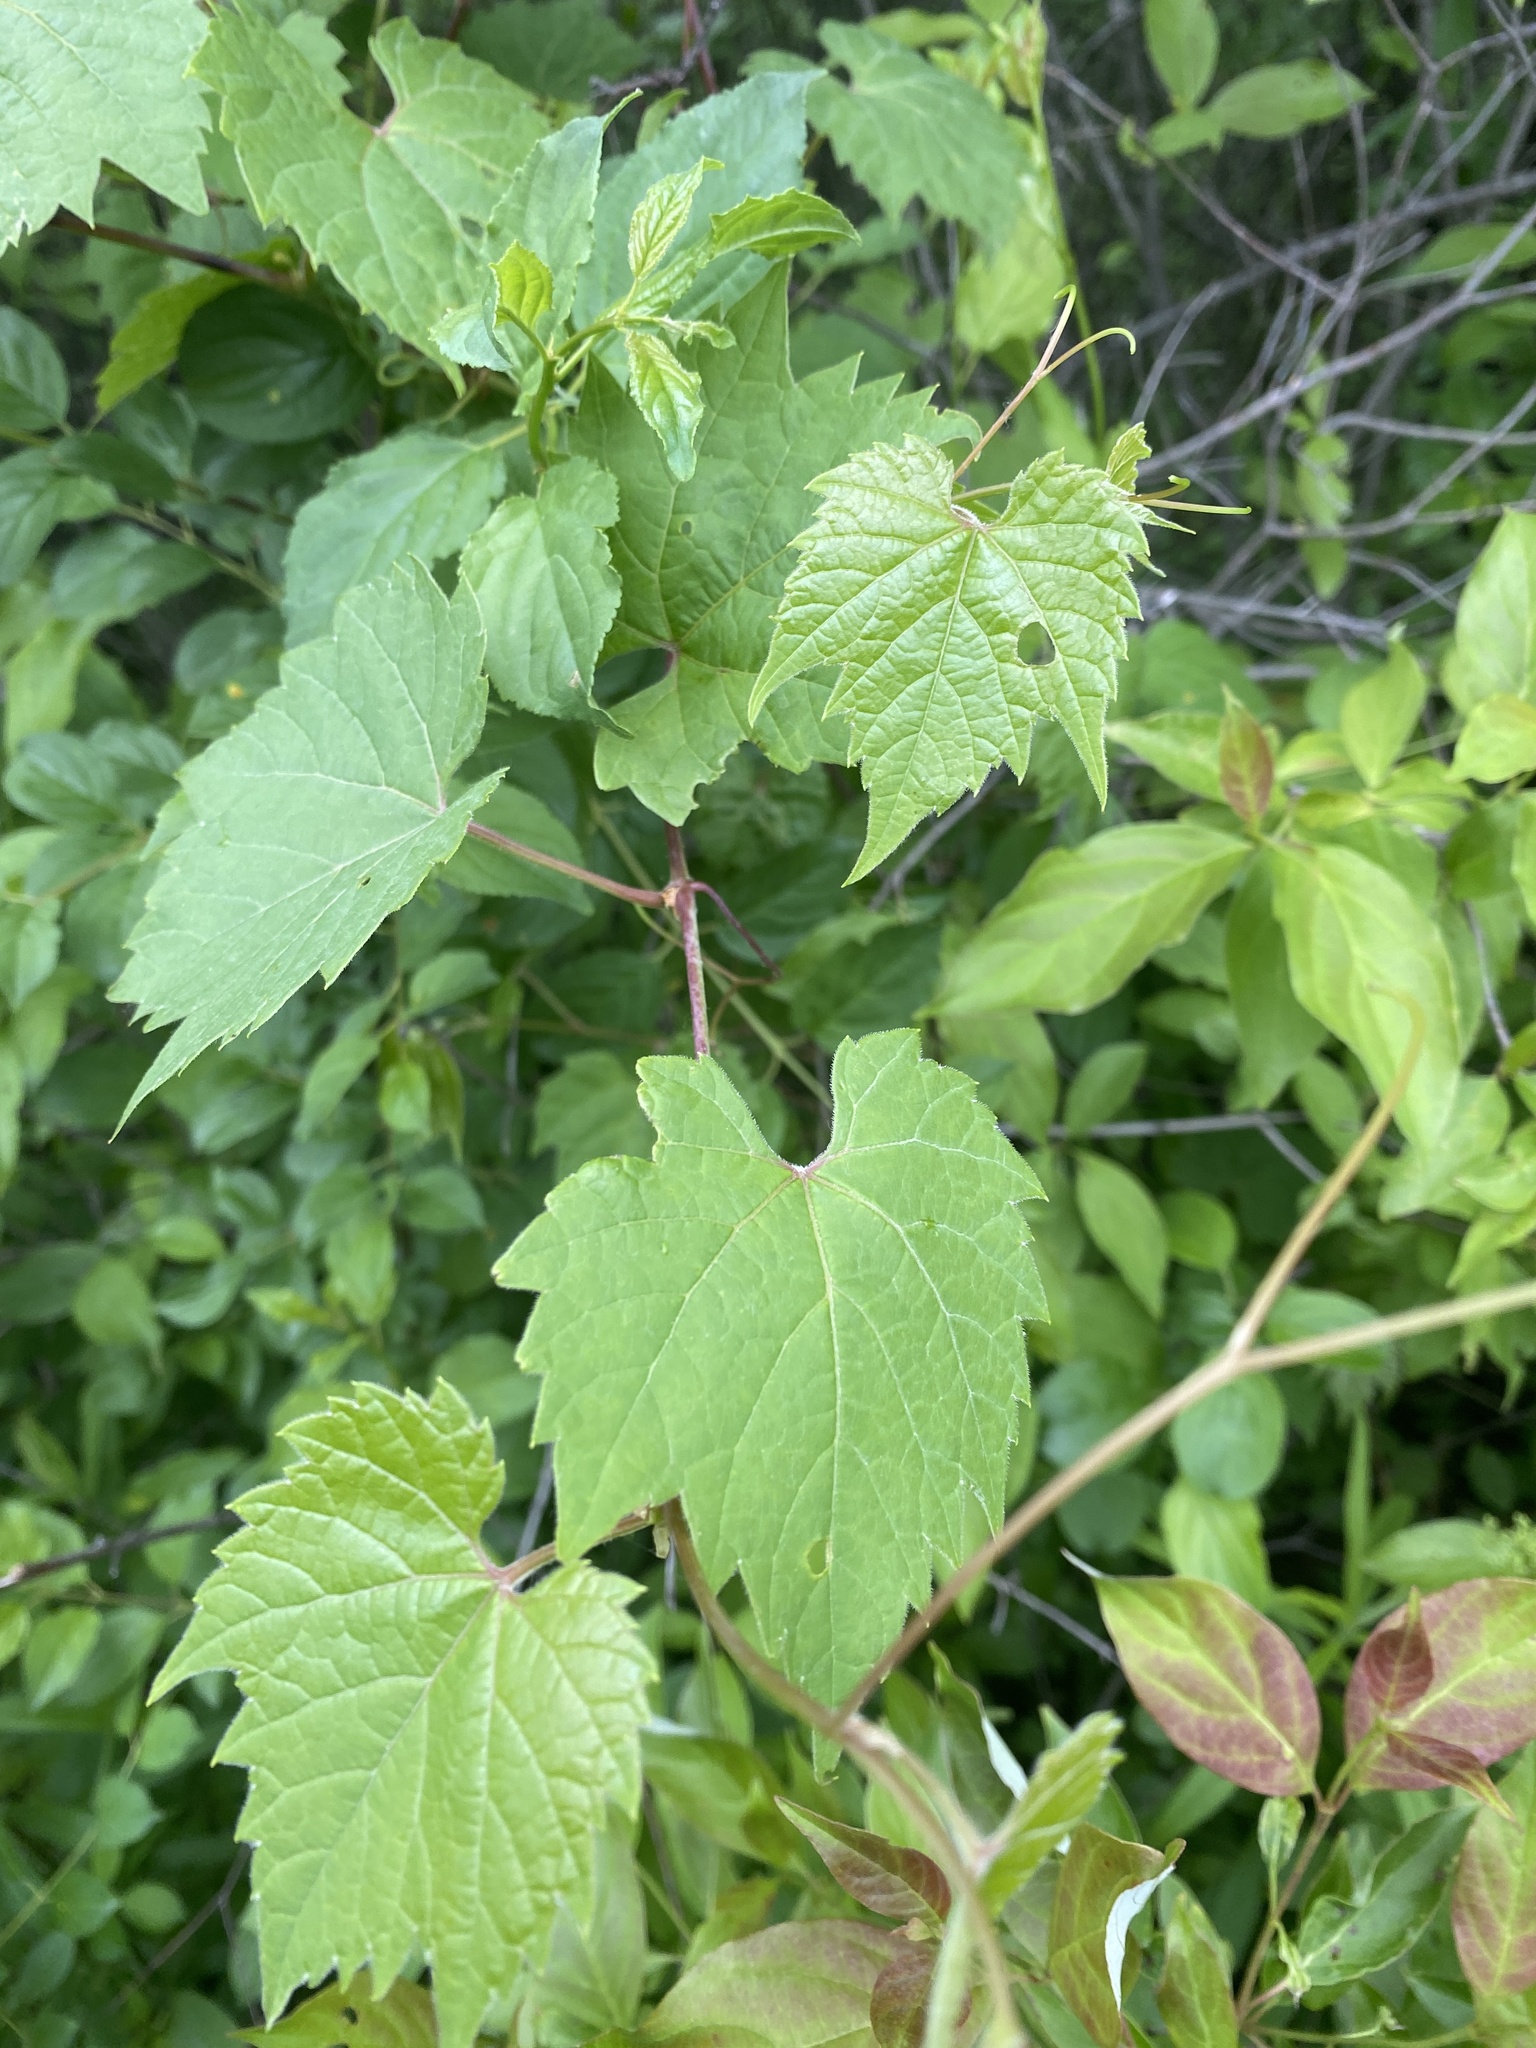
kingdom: Plantae
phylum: Tracheophyta
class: Magnoliopsida
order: Vitales
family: Vitaceae
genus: Vitis
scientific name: Vitis riparia
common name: Frost grape
